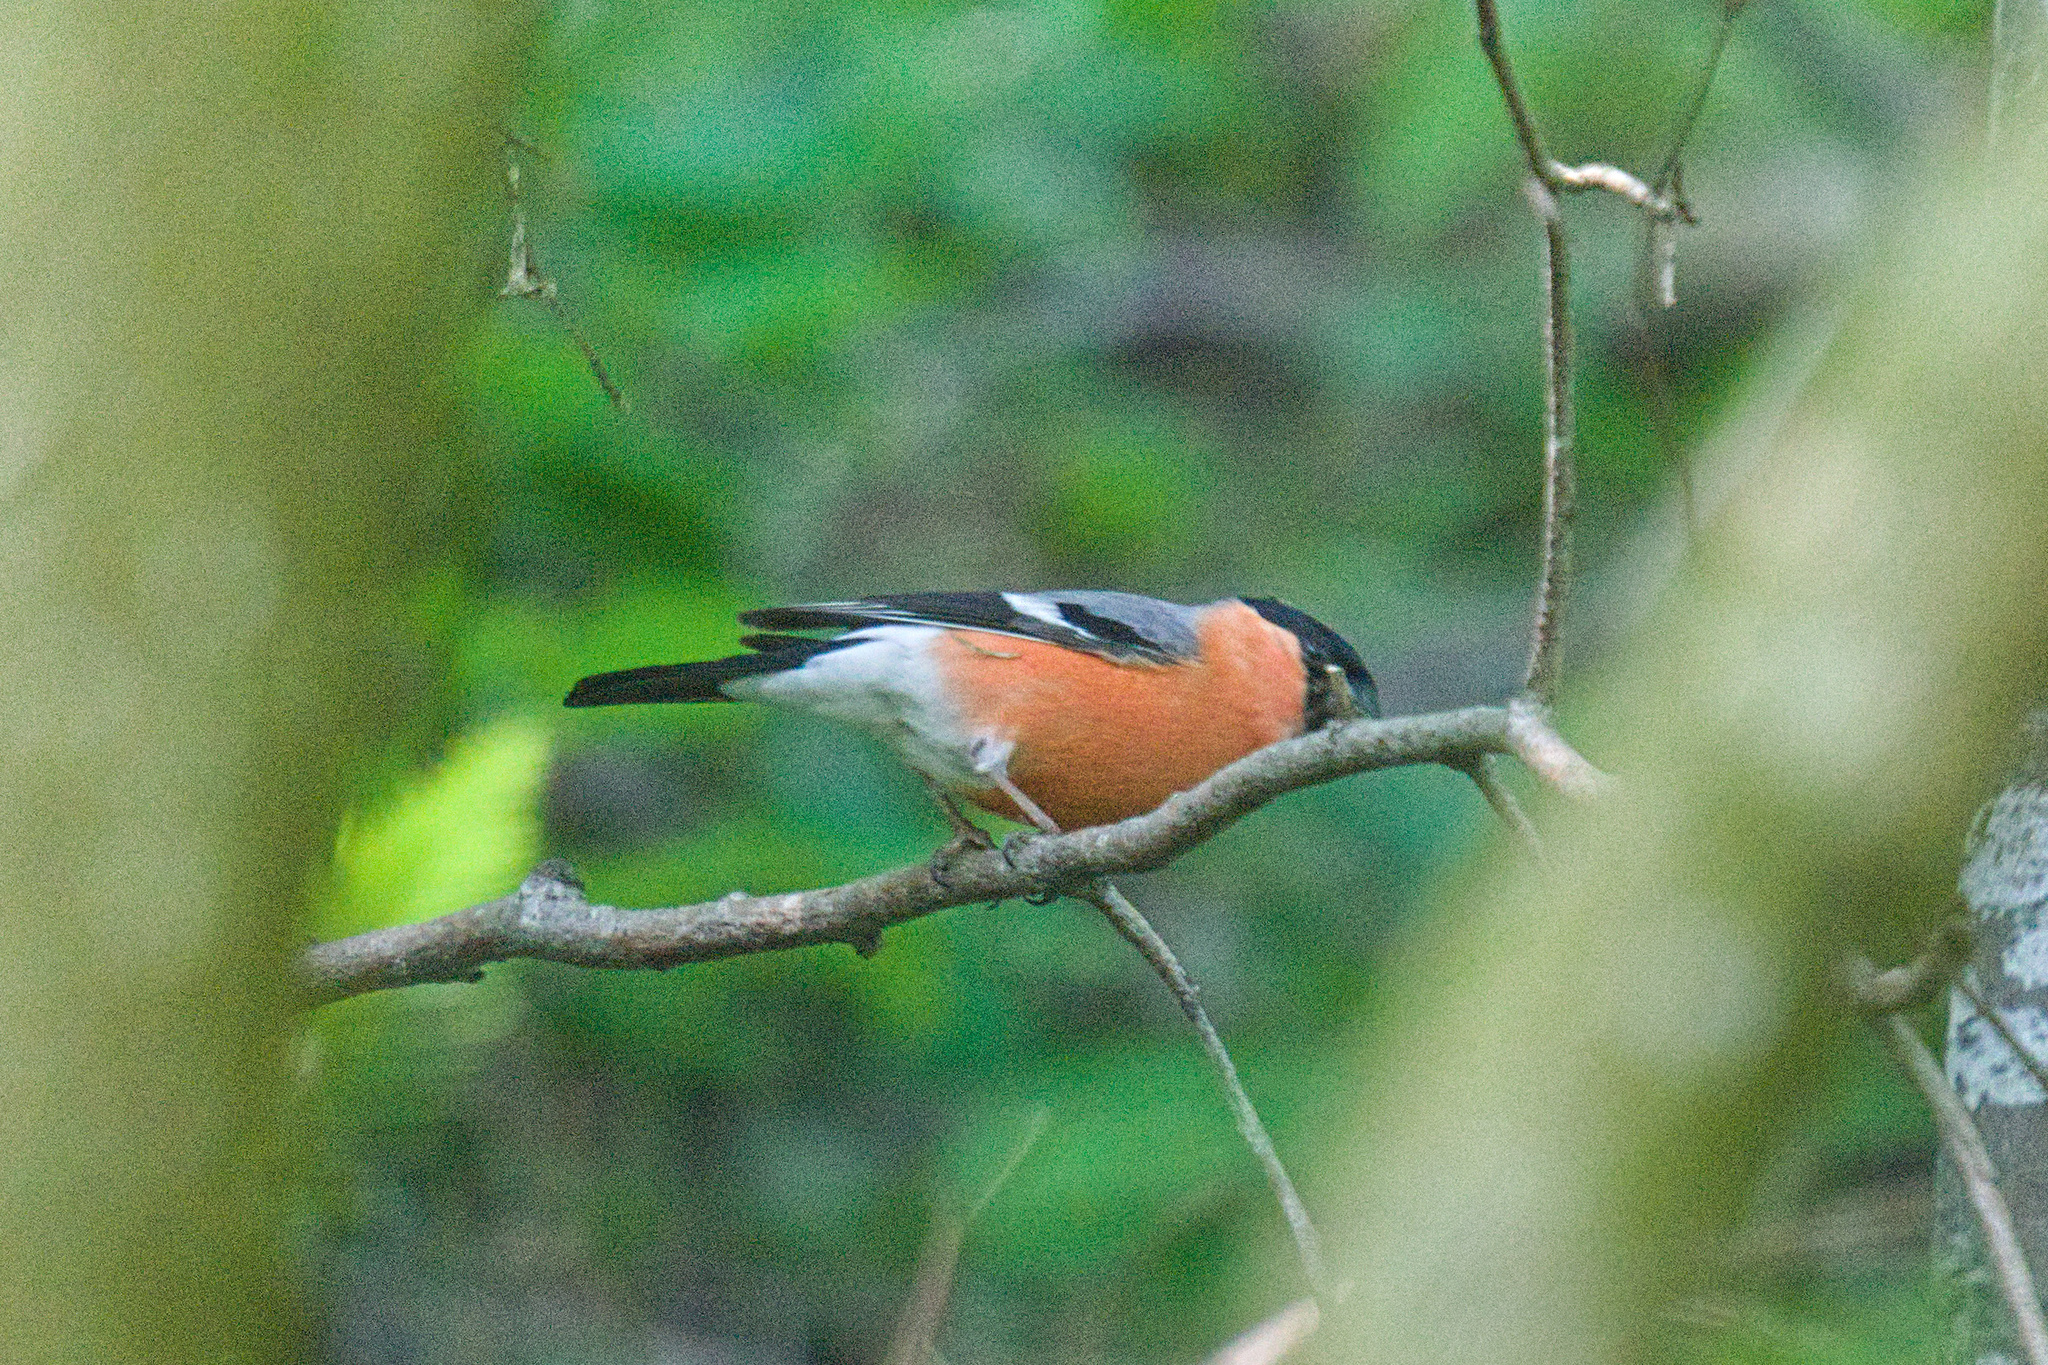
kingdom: Animalia
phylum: Chordata
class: Aves
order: Passeriformes
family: Fringillidae
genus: Pyrrhula
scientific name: Pyrrhula pyrrhula
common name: Eurasian bullfinch
